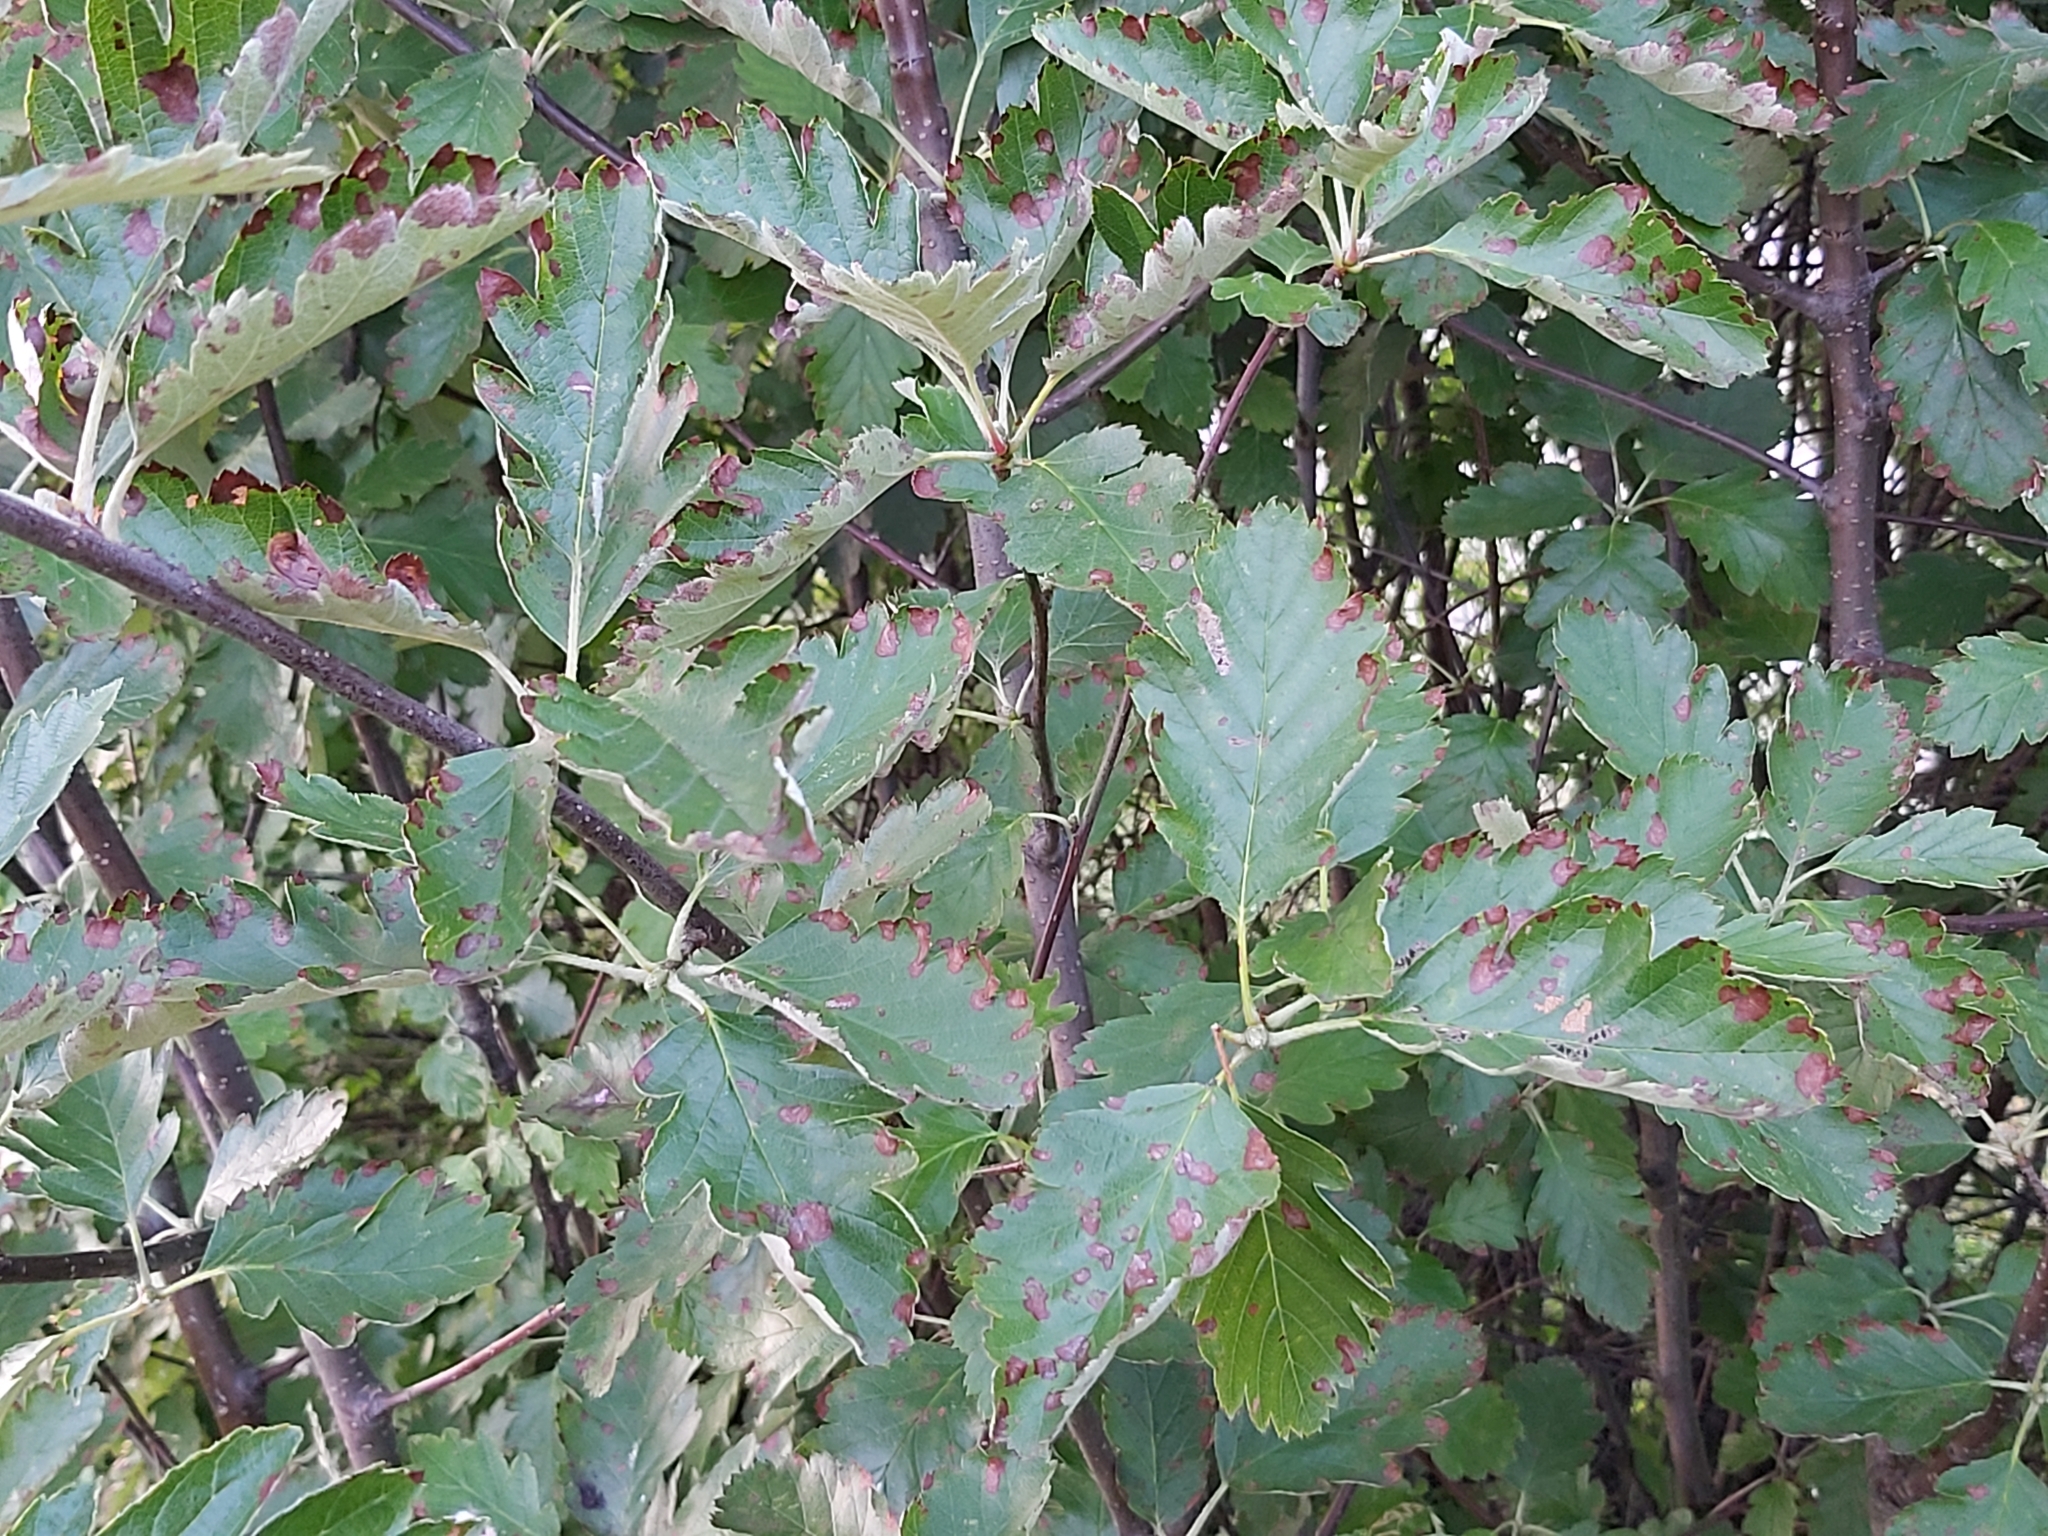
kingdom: Plantae
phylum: Tracheophyta
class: Magnoliopsida
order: Rosales
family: Rosaceae
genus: Scandosorbus
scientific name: Scandosorbus intermedia
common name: Swedish whitebeam
